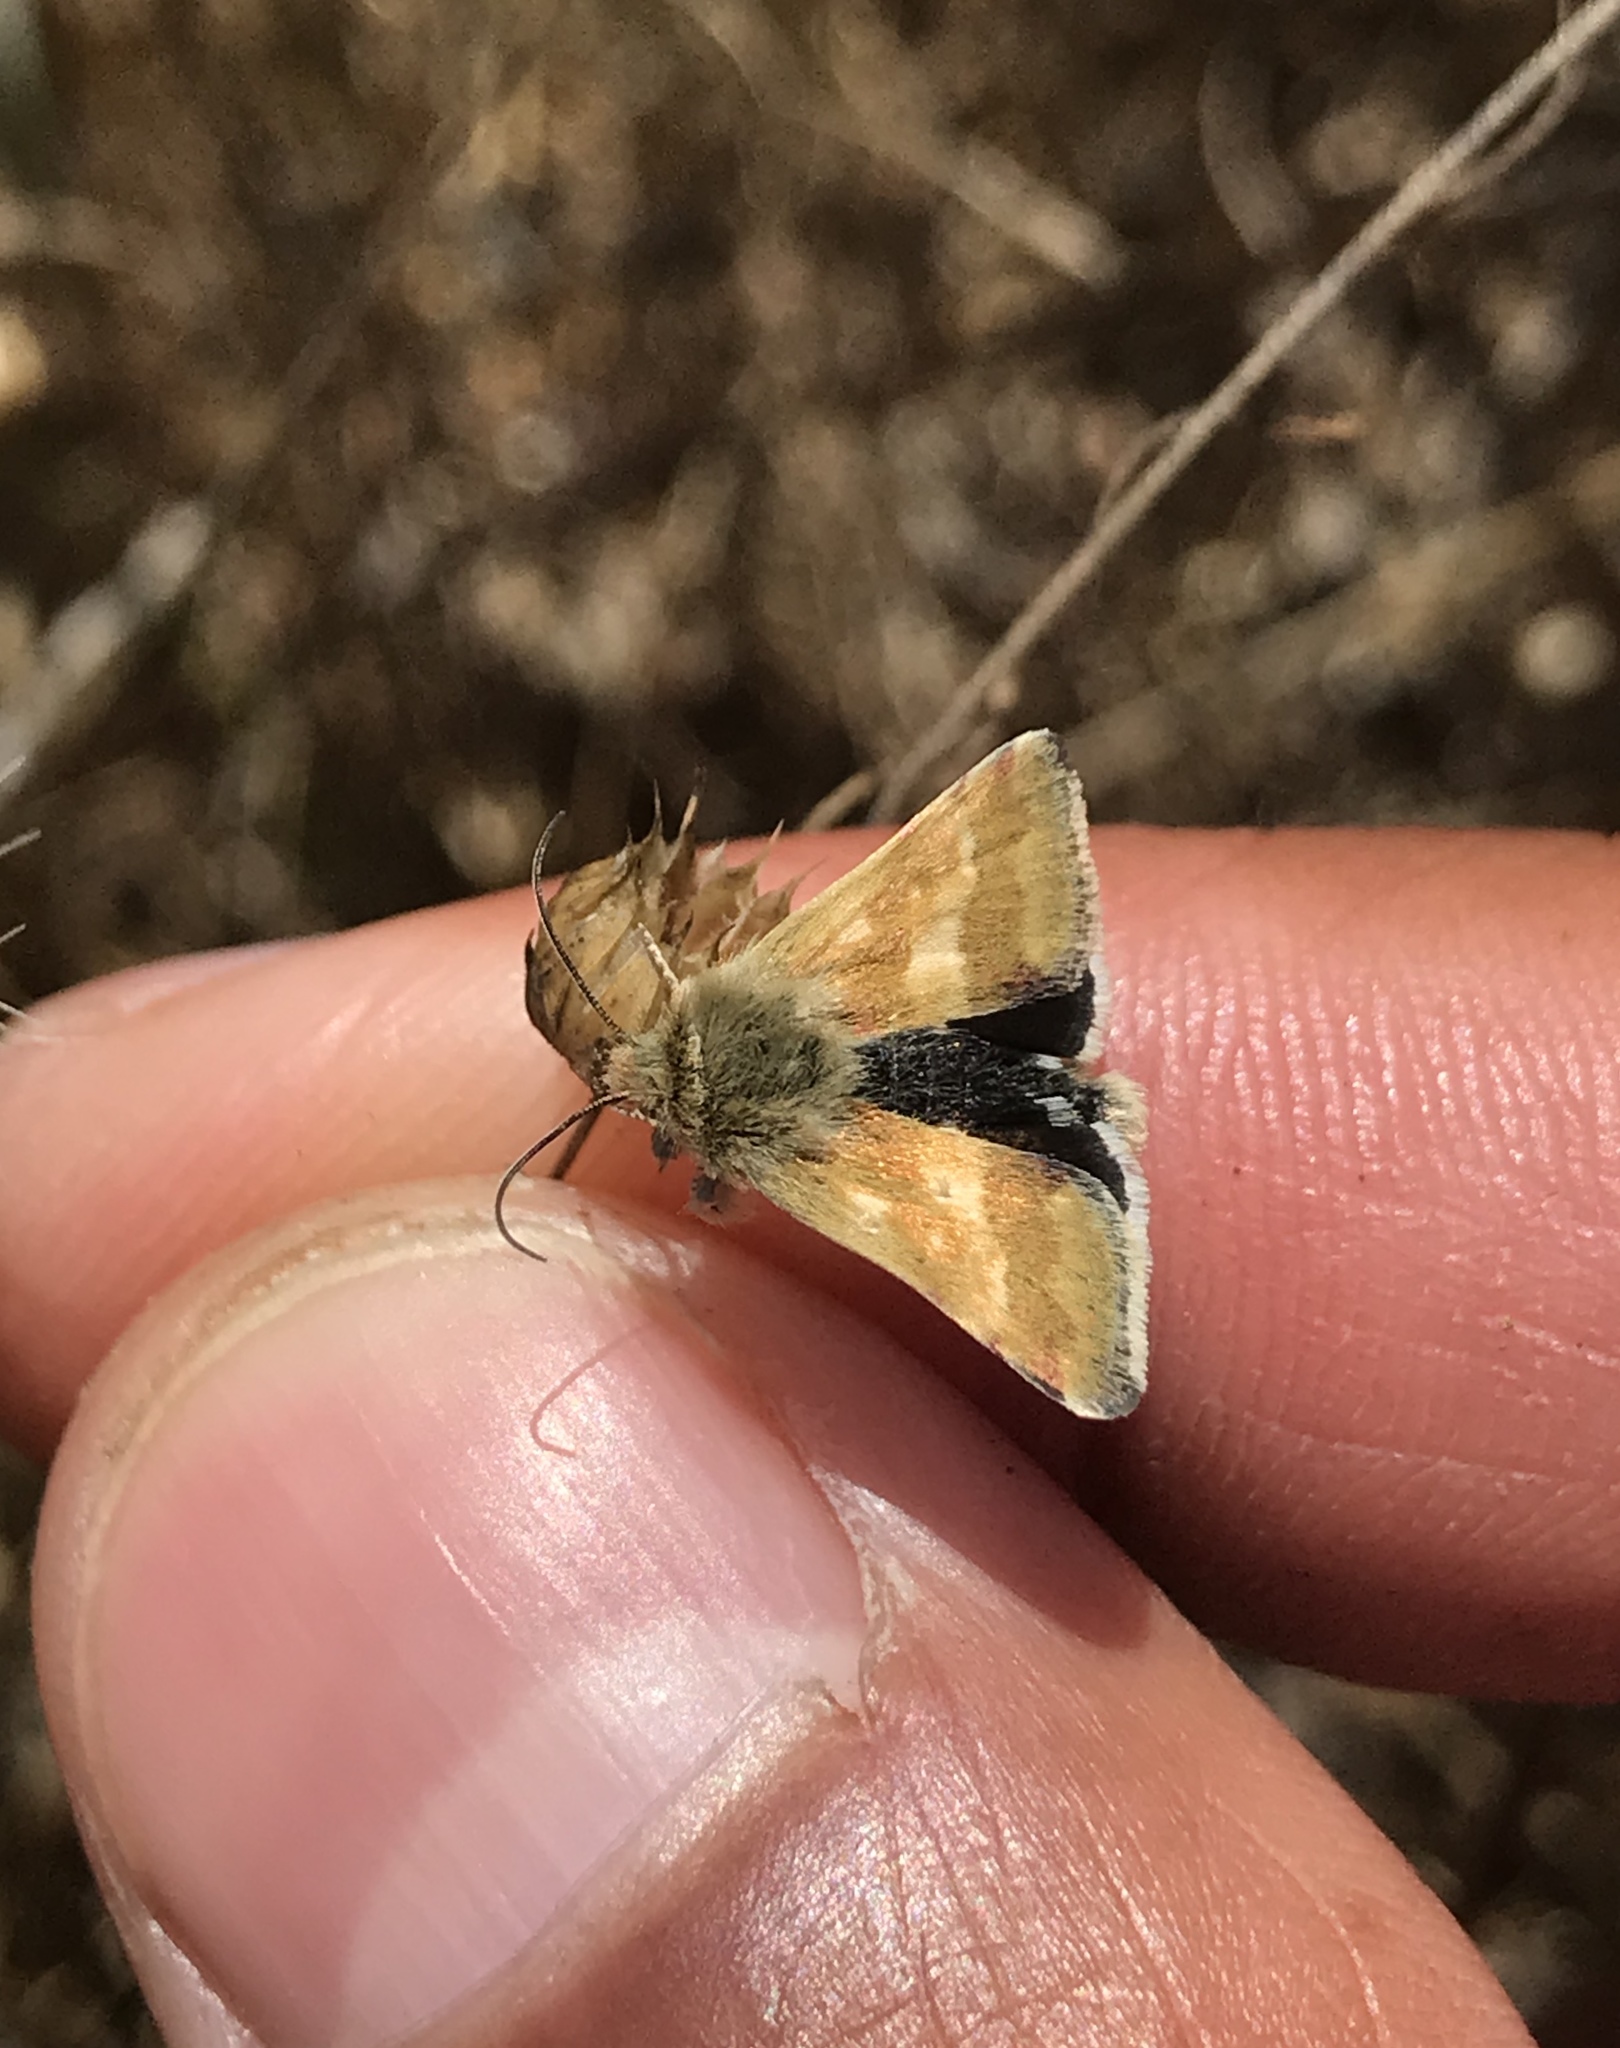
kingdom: Animalia
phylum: Arthropoda
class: Insecta
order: Lepidoptera
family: Noctuidae
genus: Heliothodes
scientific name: Heliothodes diminutiva
